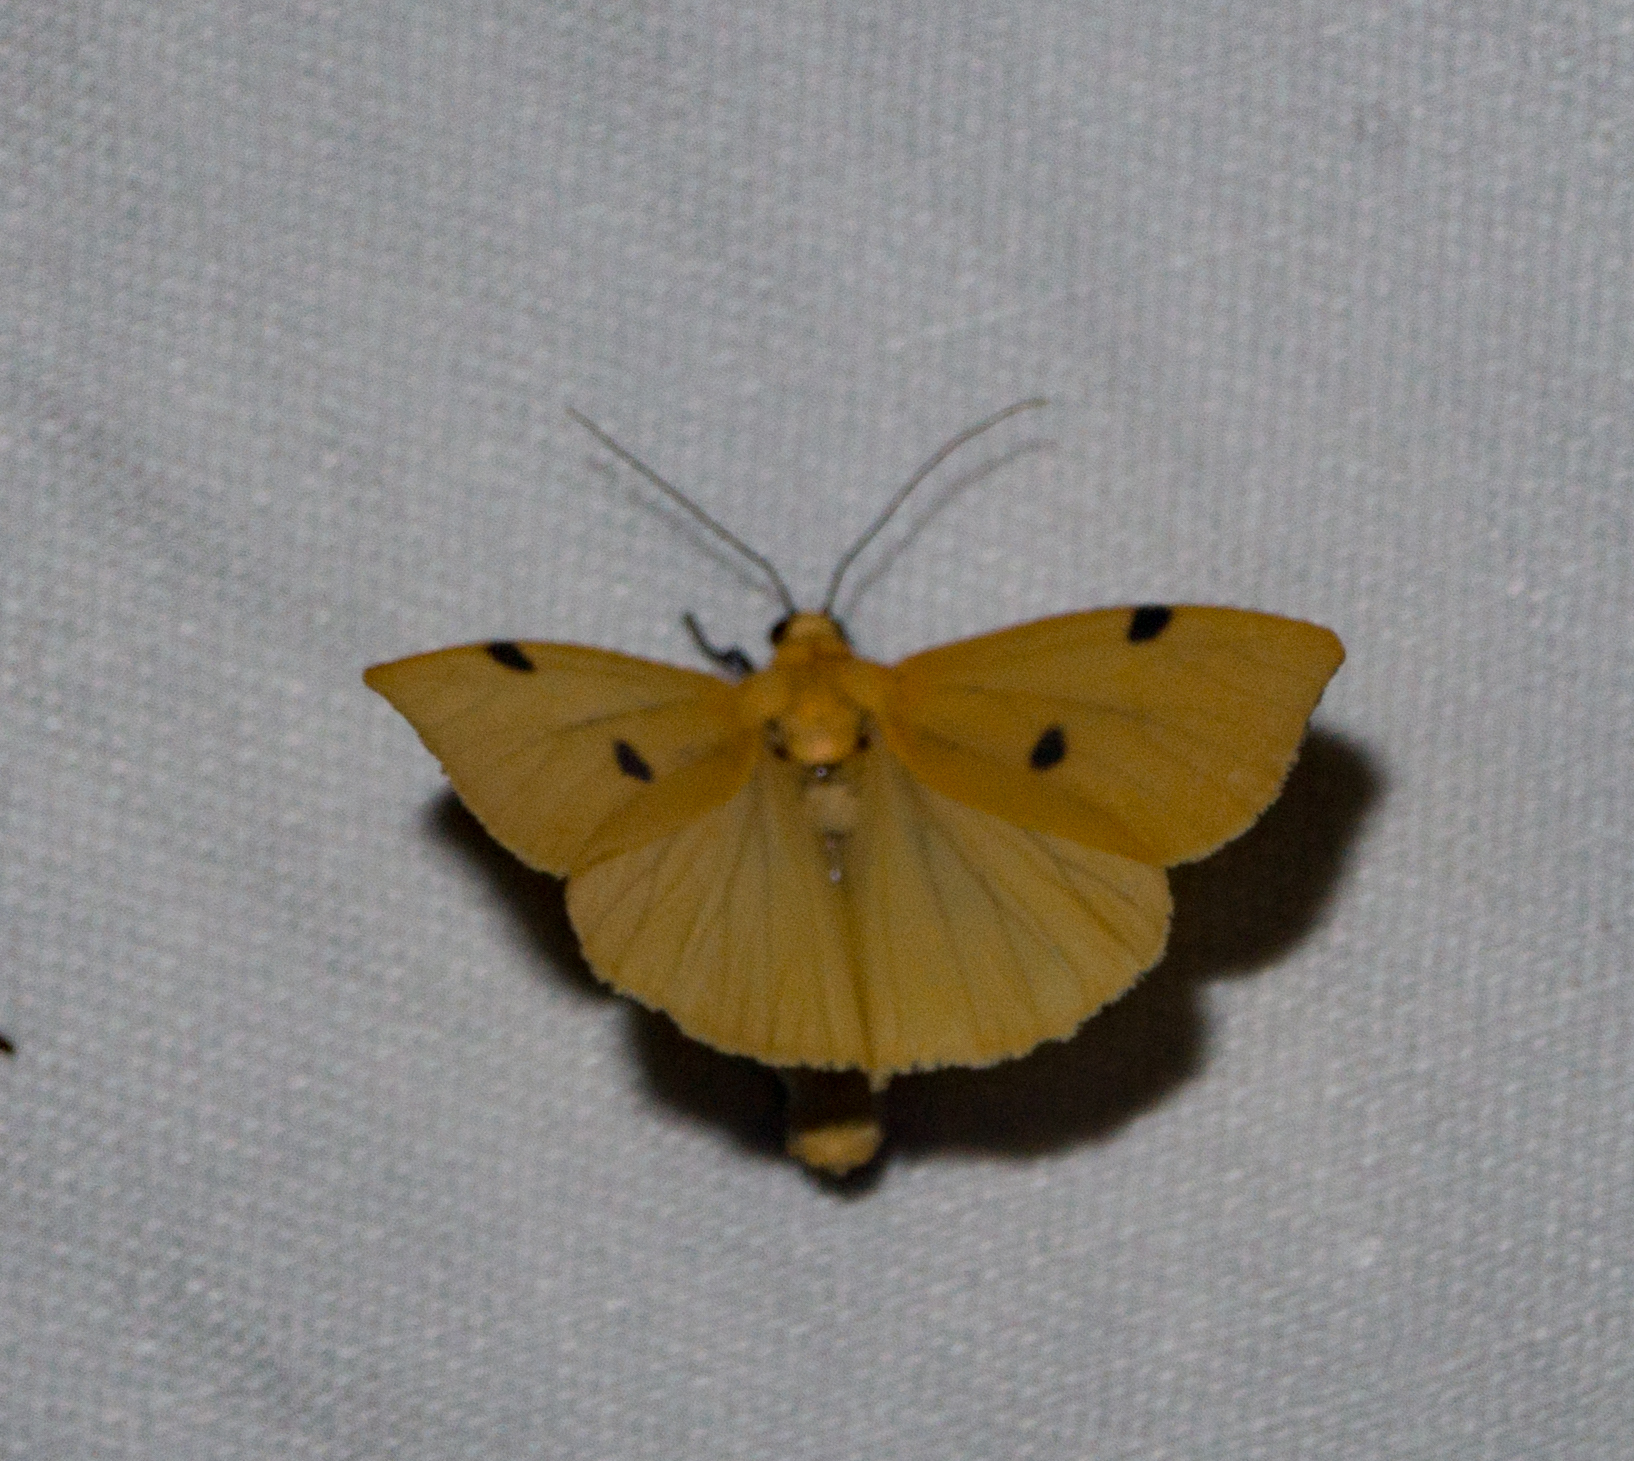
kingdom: Animalia
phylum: Arthropoda
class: Insecta
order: Lepidoptera
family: Erebidae
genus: Lithosia
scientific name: Lithosia quadra
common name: Four-spotted footman
